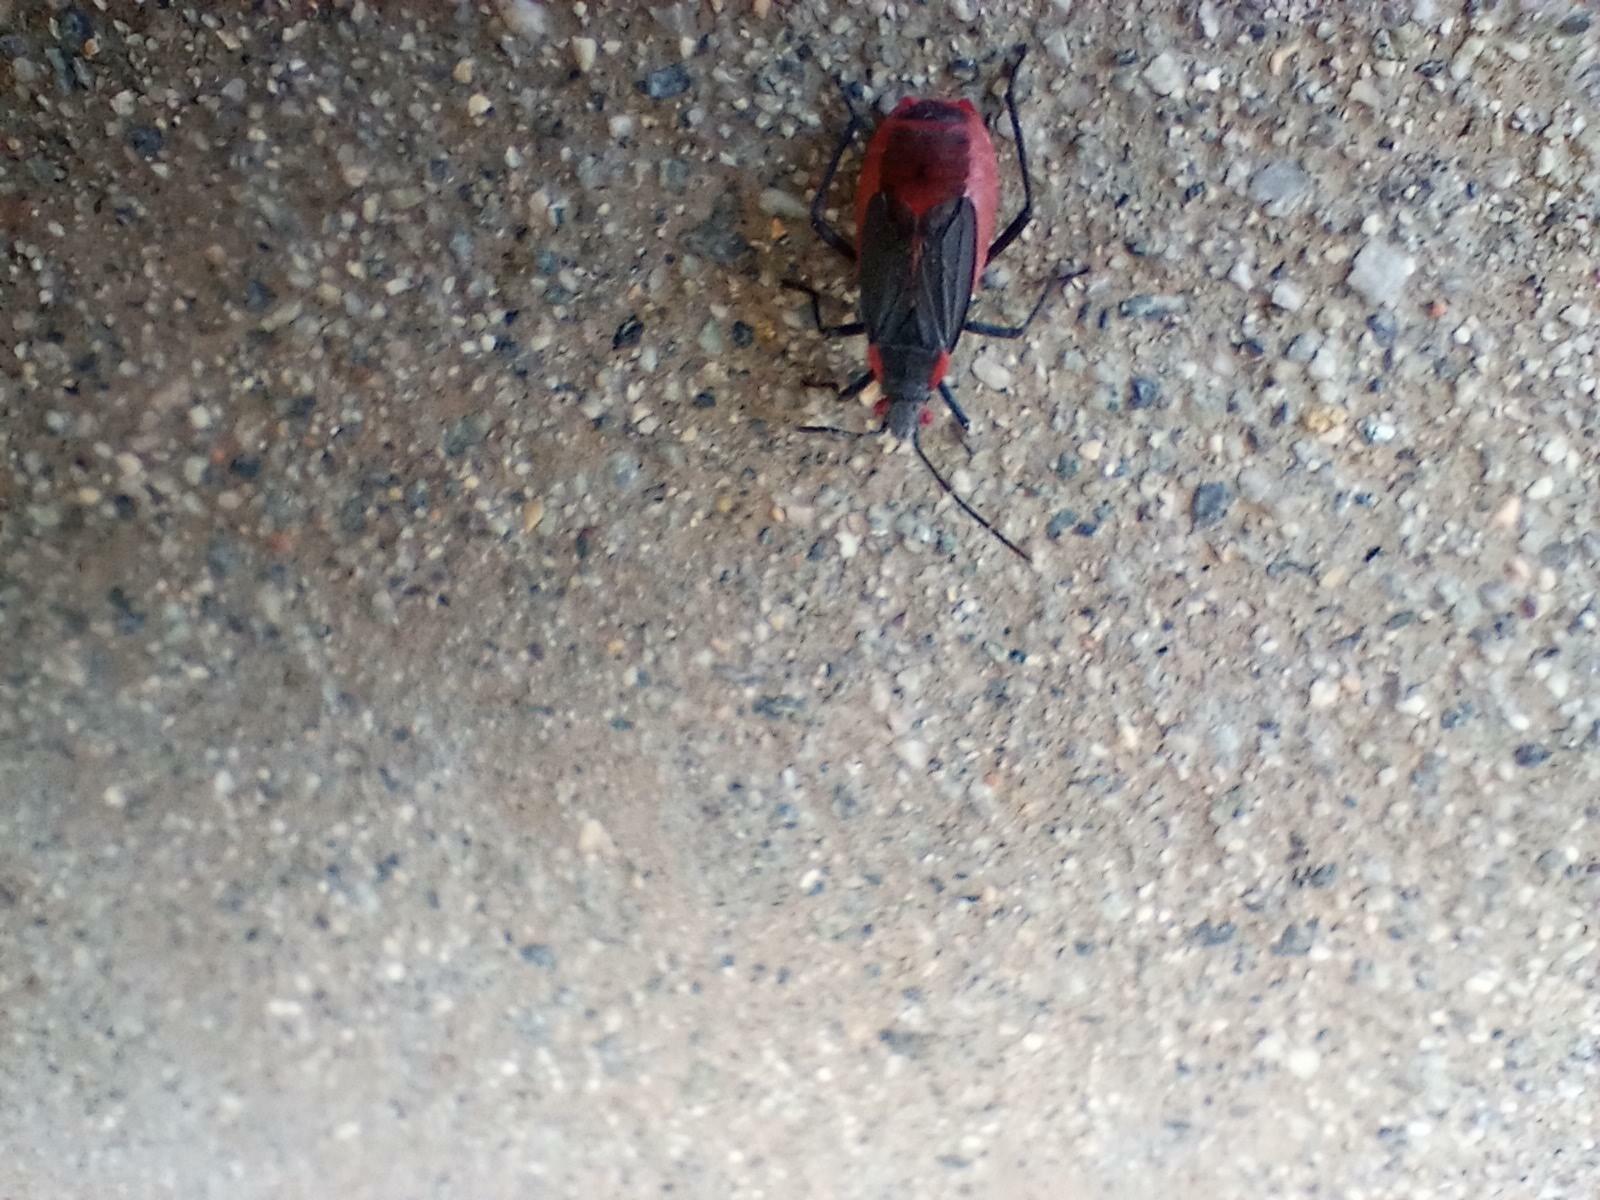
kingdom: Animalia
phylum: Arthropoda
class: Insecta
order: Hemiptera
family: Rhopalidae
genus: Jadera
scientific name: Jadera haematoloma
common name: Red-shouldered bug
